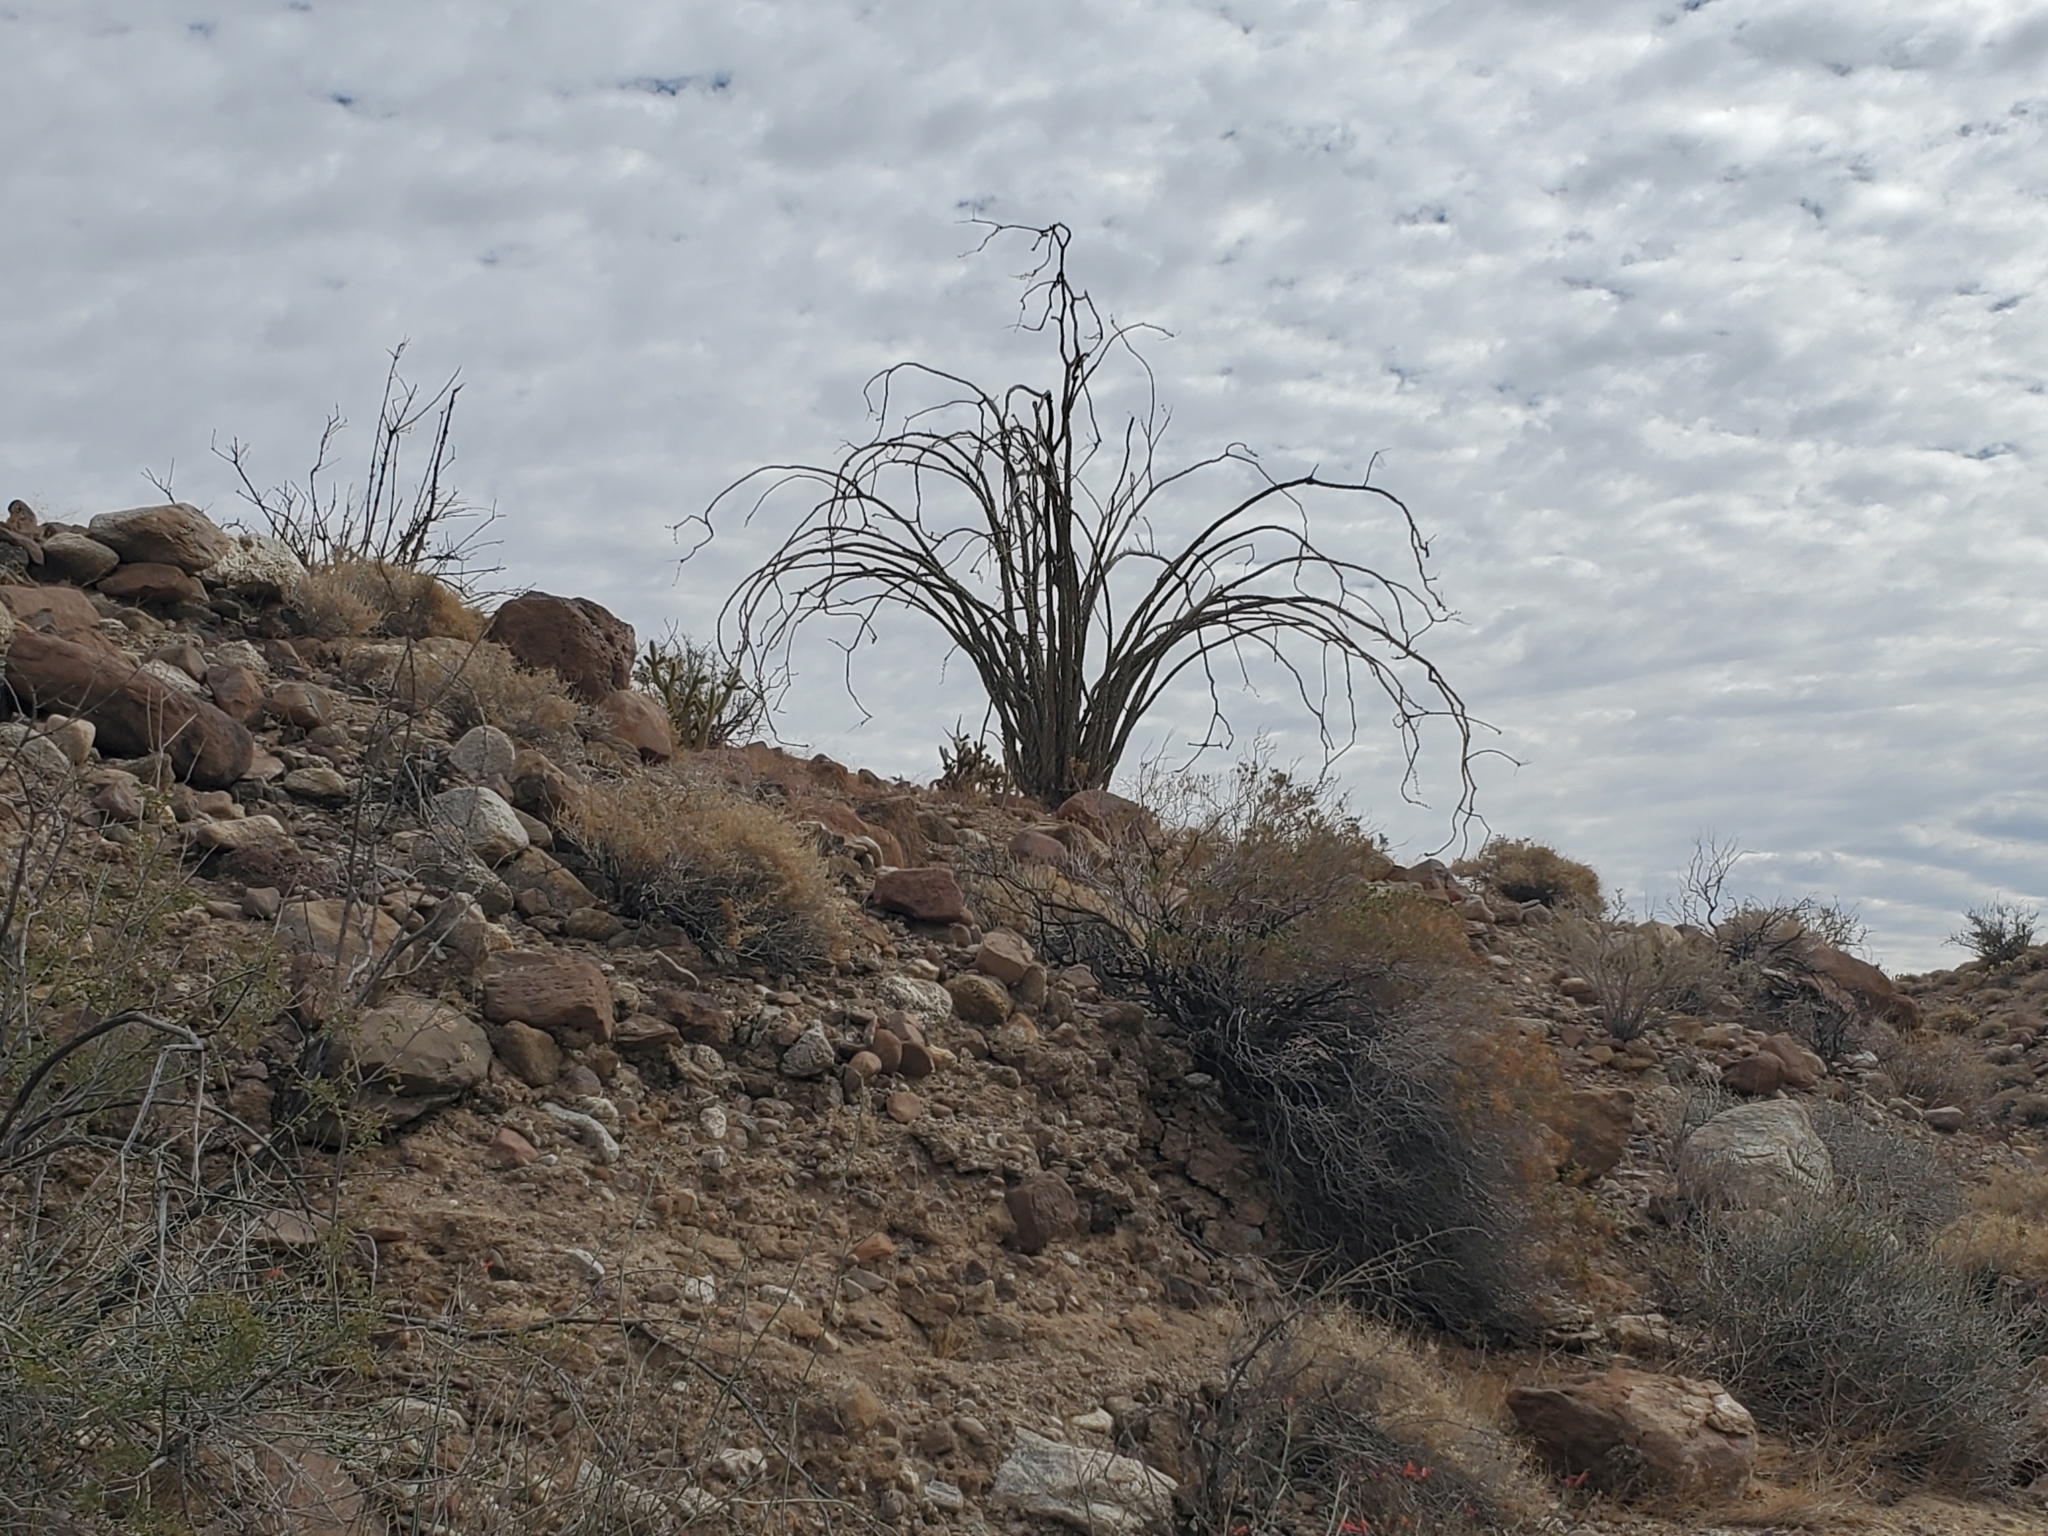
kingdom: Plantae
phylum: Tracheophyta
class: Magnoliopsida
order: Ericales
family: Fouquieriaceae
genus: Fouquieria
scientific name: Fouquieria splendens
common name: Vine-cactus
